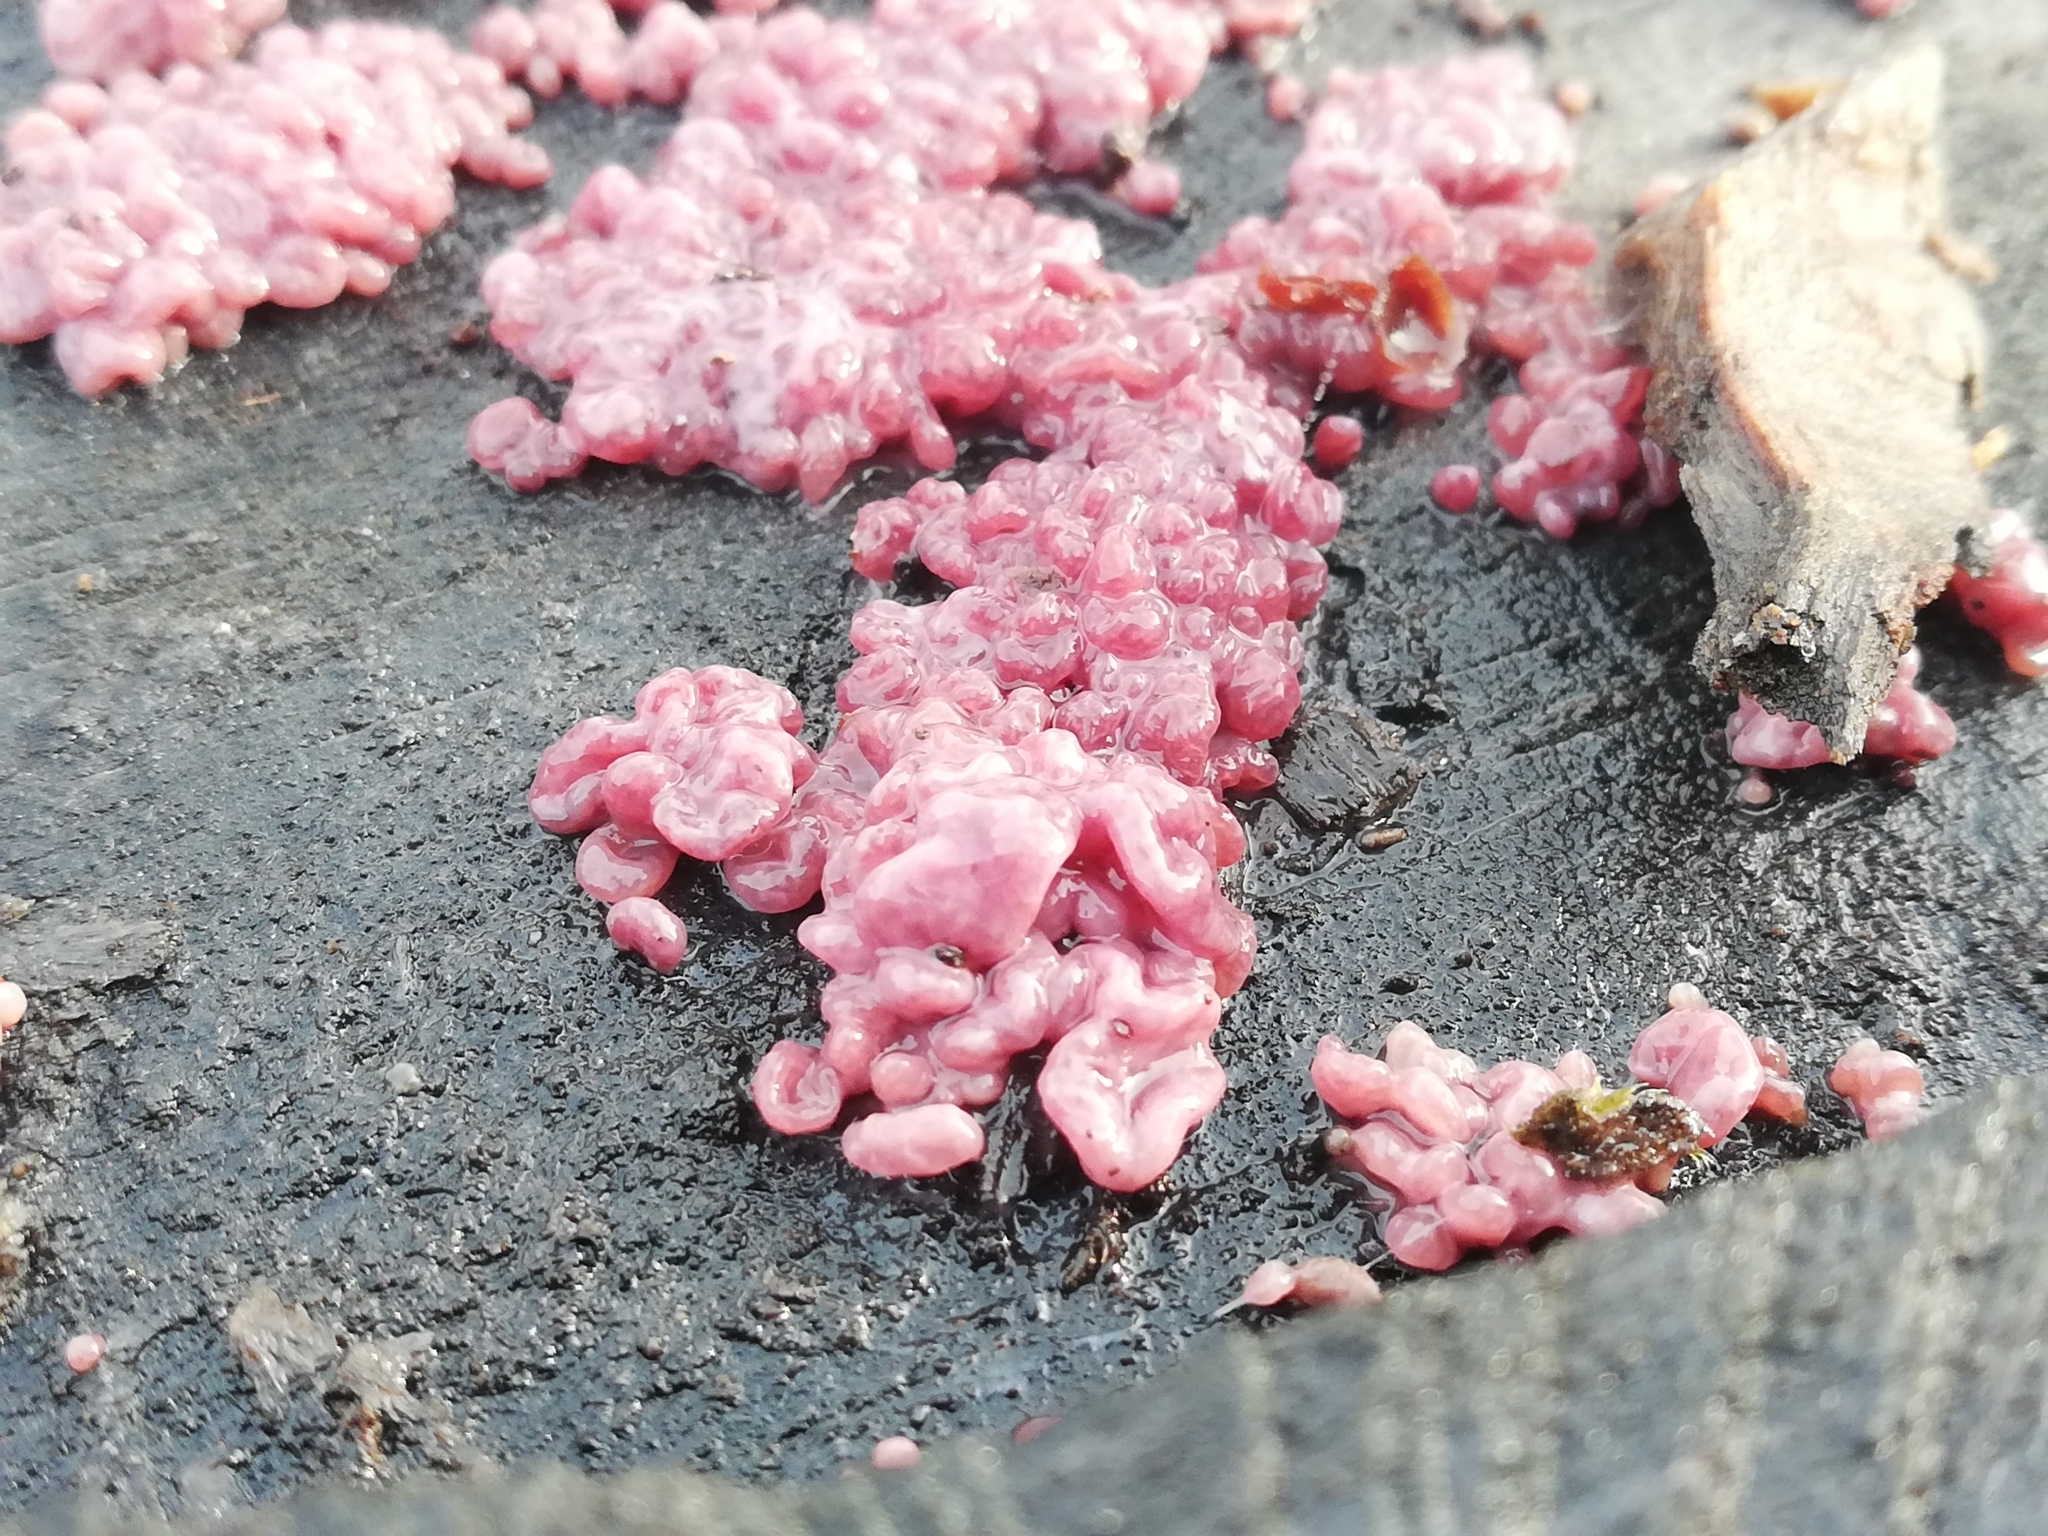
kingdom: Fungi
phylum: Ascomycota
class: Leotiomycetes
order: Helotiales
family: Gelatinodiscaceae
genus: Ascocoryne
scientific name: Ascocoryne sarcoides
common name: Purple jellydisc
